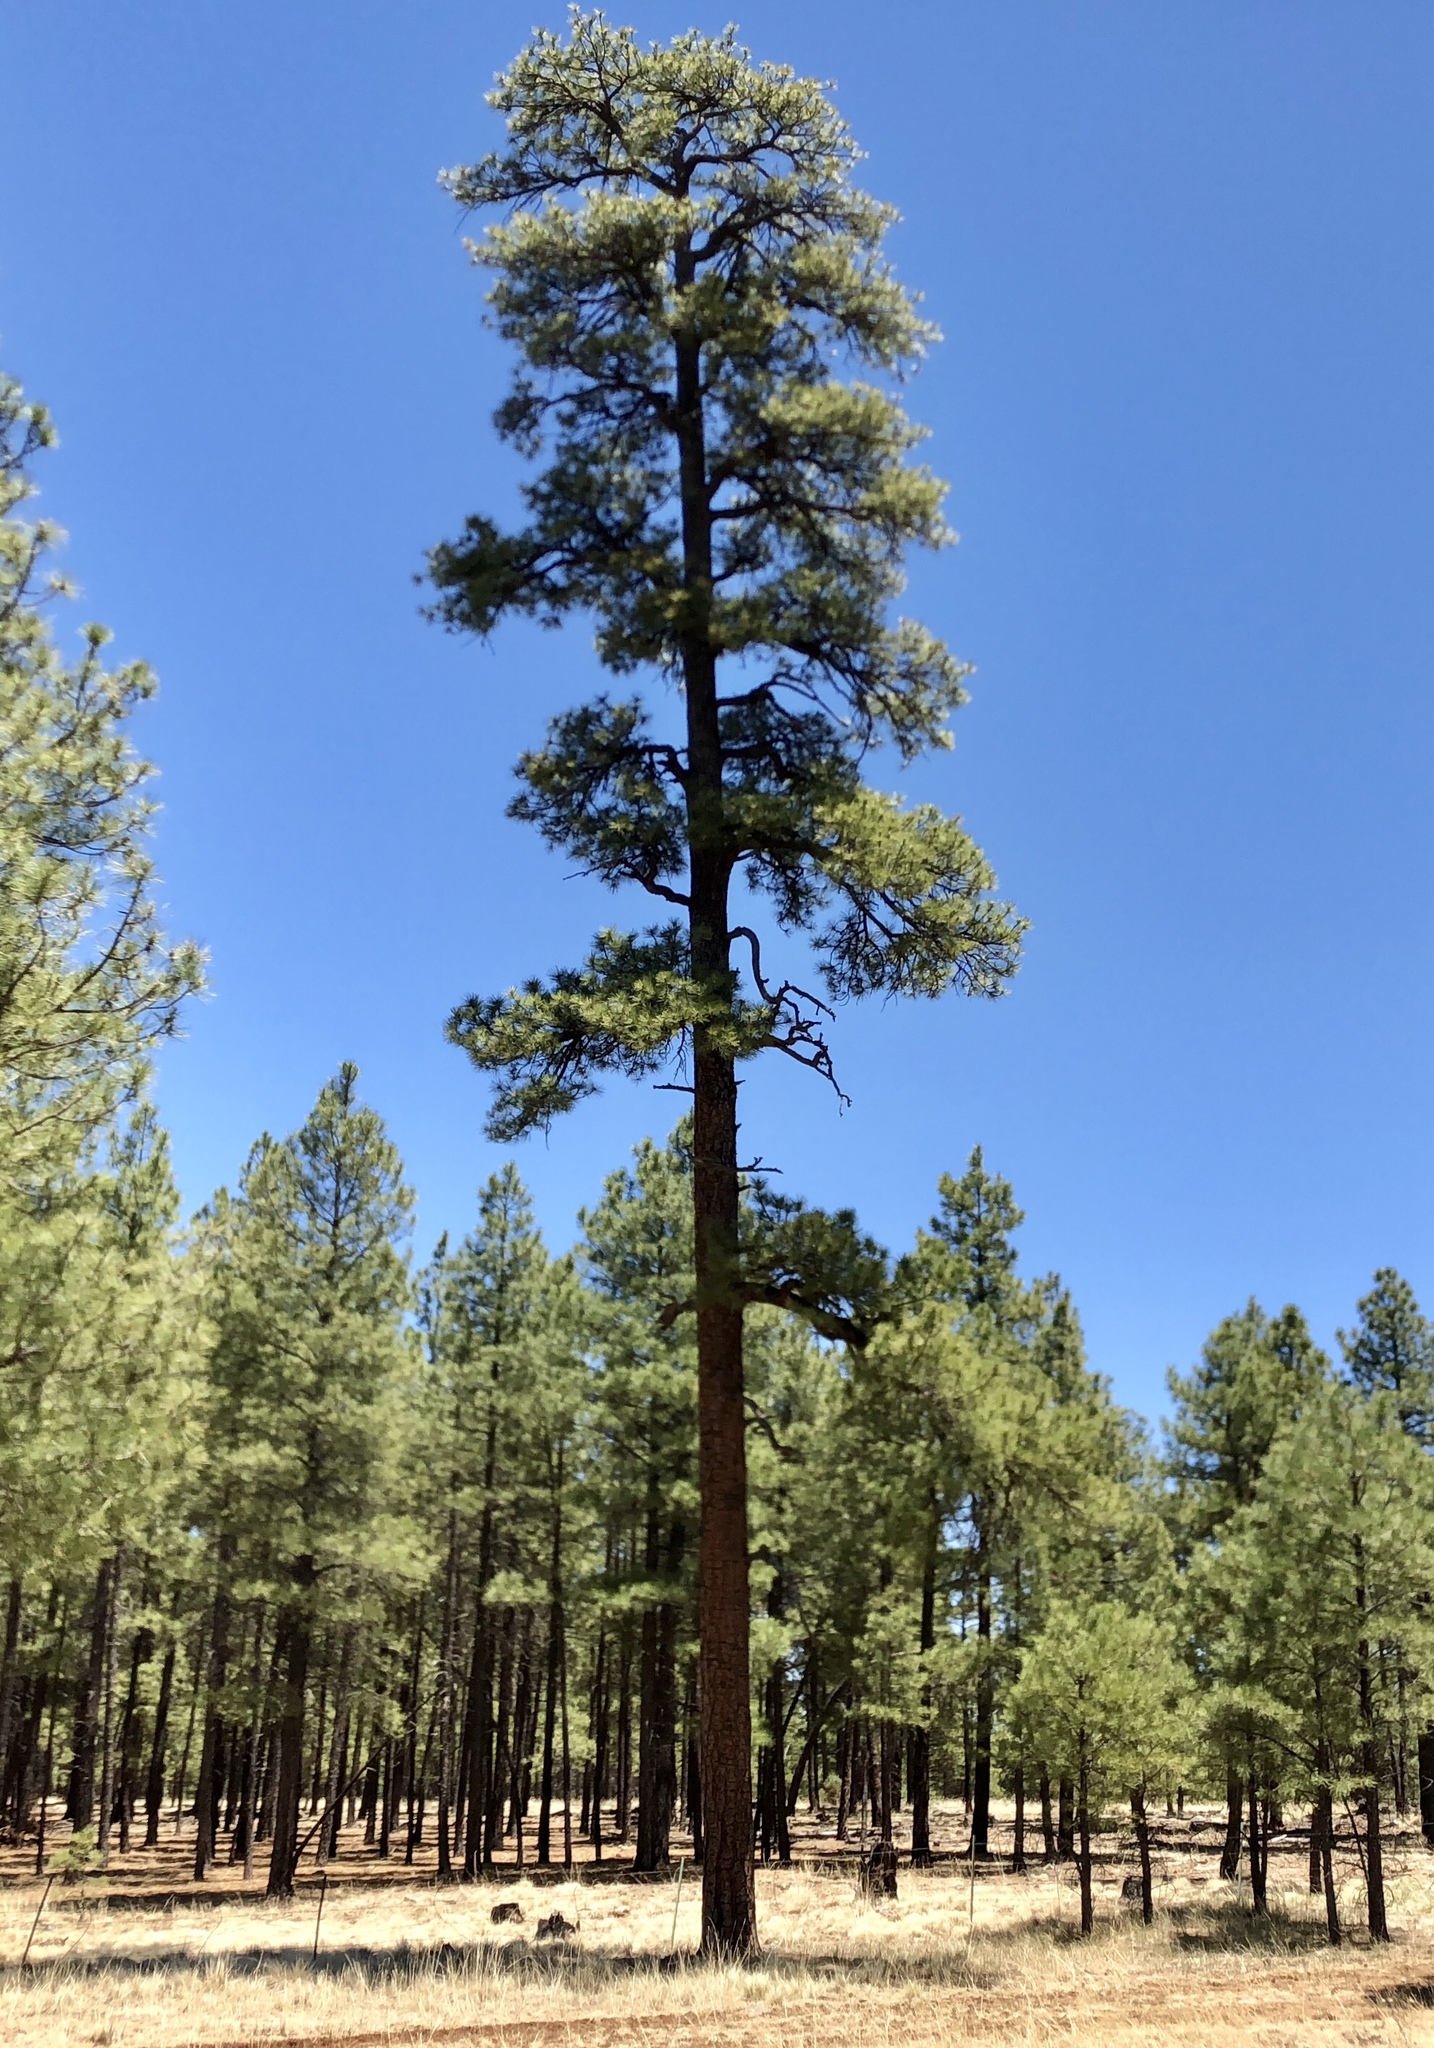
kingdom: Plantae
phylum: Tracheophyta
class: Pinopsida
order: Pinales
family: Pinaceae
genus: Pinus
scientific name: Pinus ponderosa
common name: Western yellow-pine
